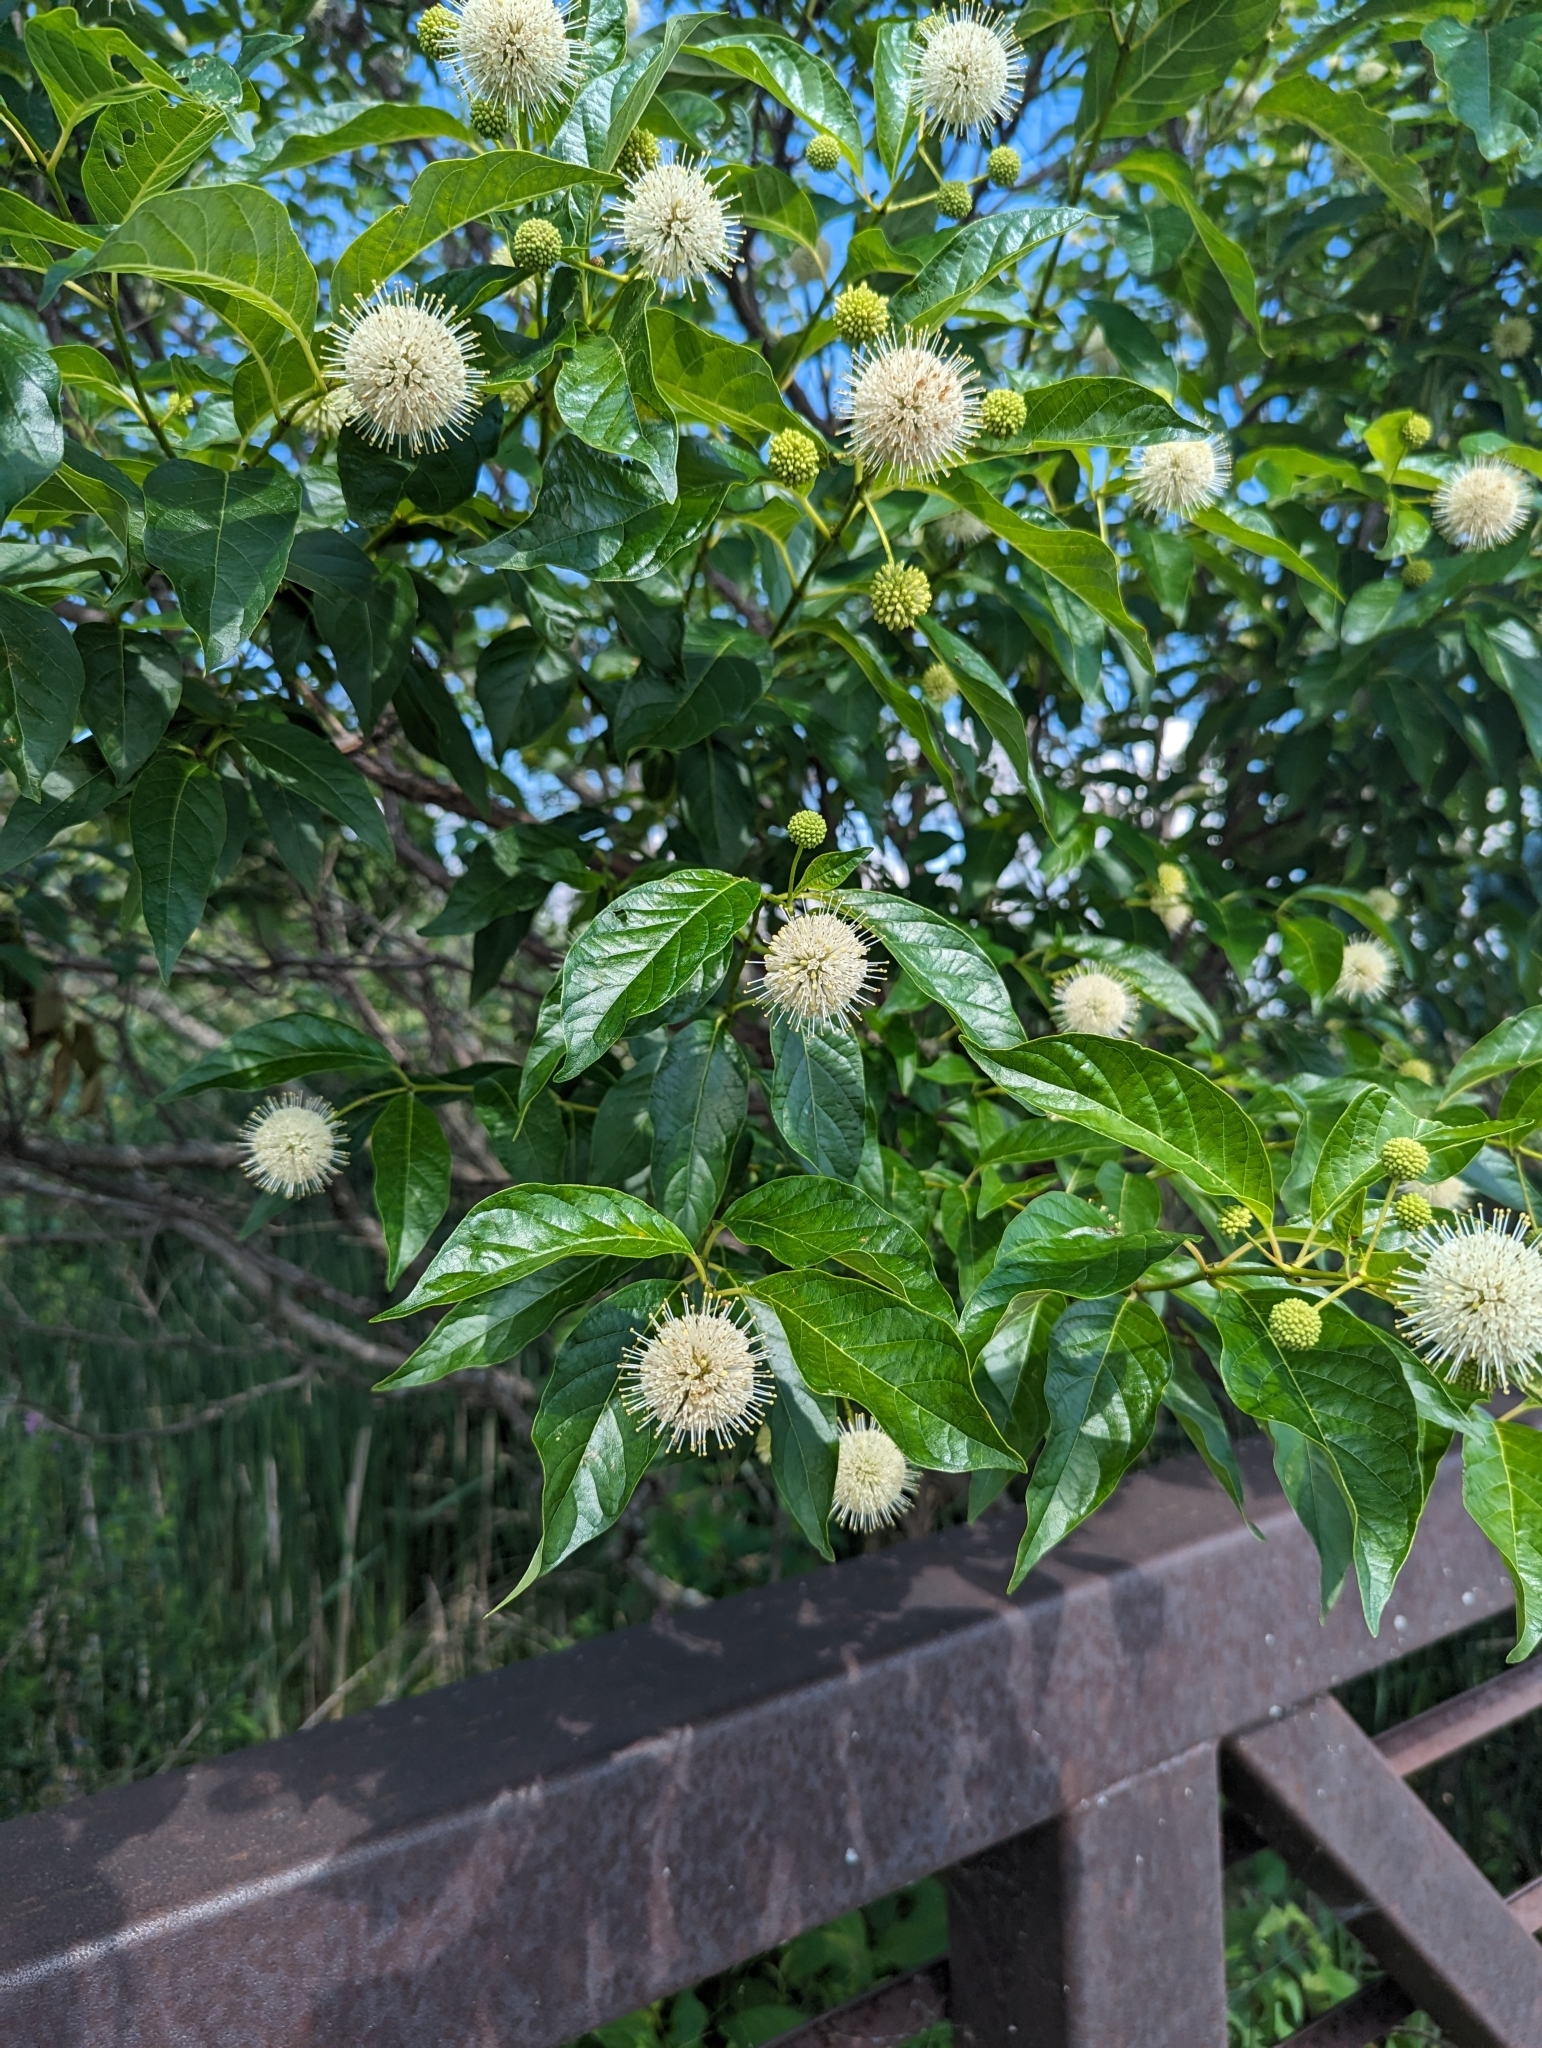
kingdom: Plantae
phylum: Tracheophyta
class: Magnoliopsida
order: Gentianales
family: Rubiaceae
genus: Cephalanthus
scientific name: Cephalanthus occidentalis
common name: Button-willow
